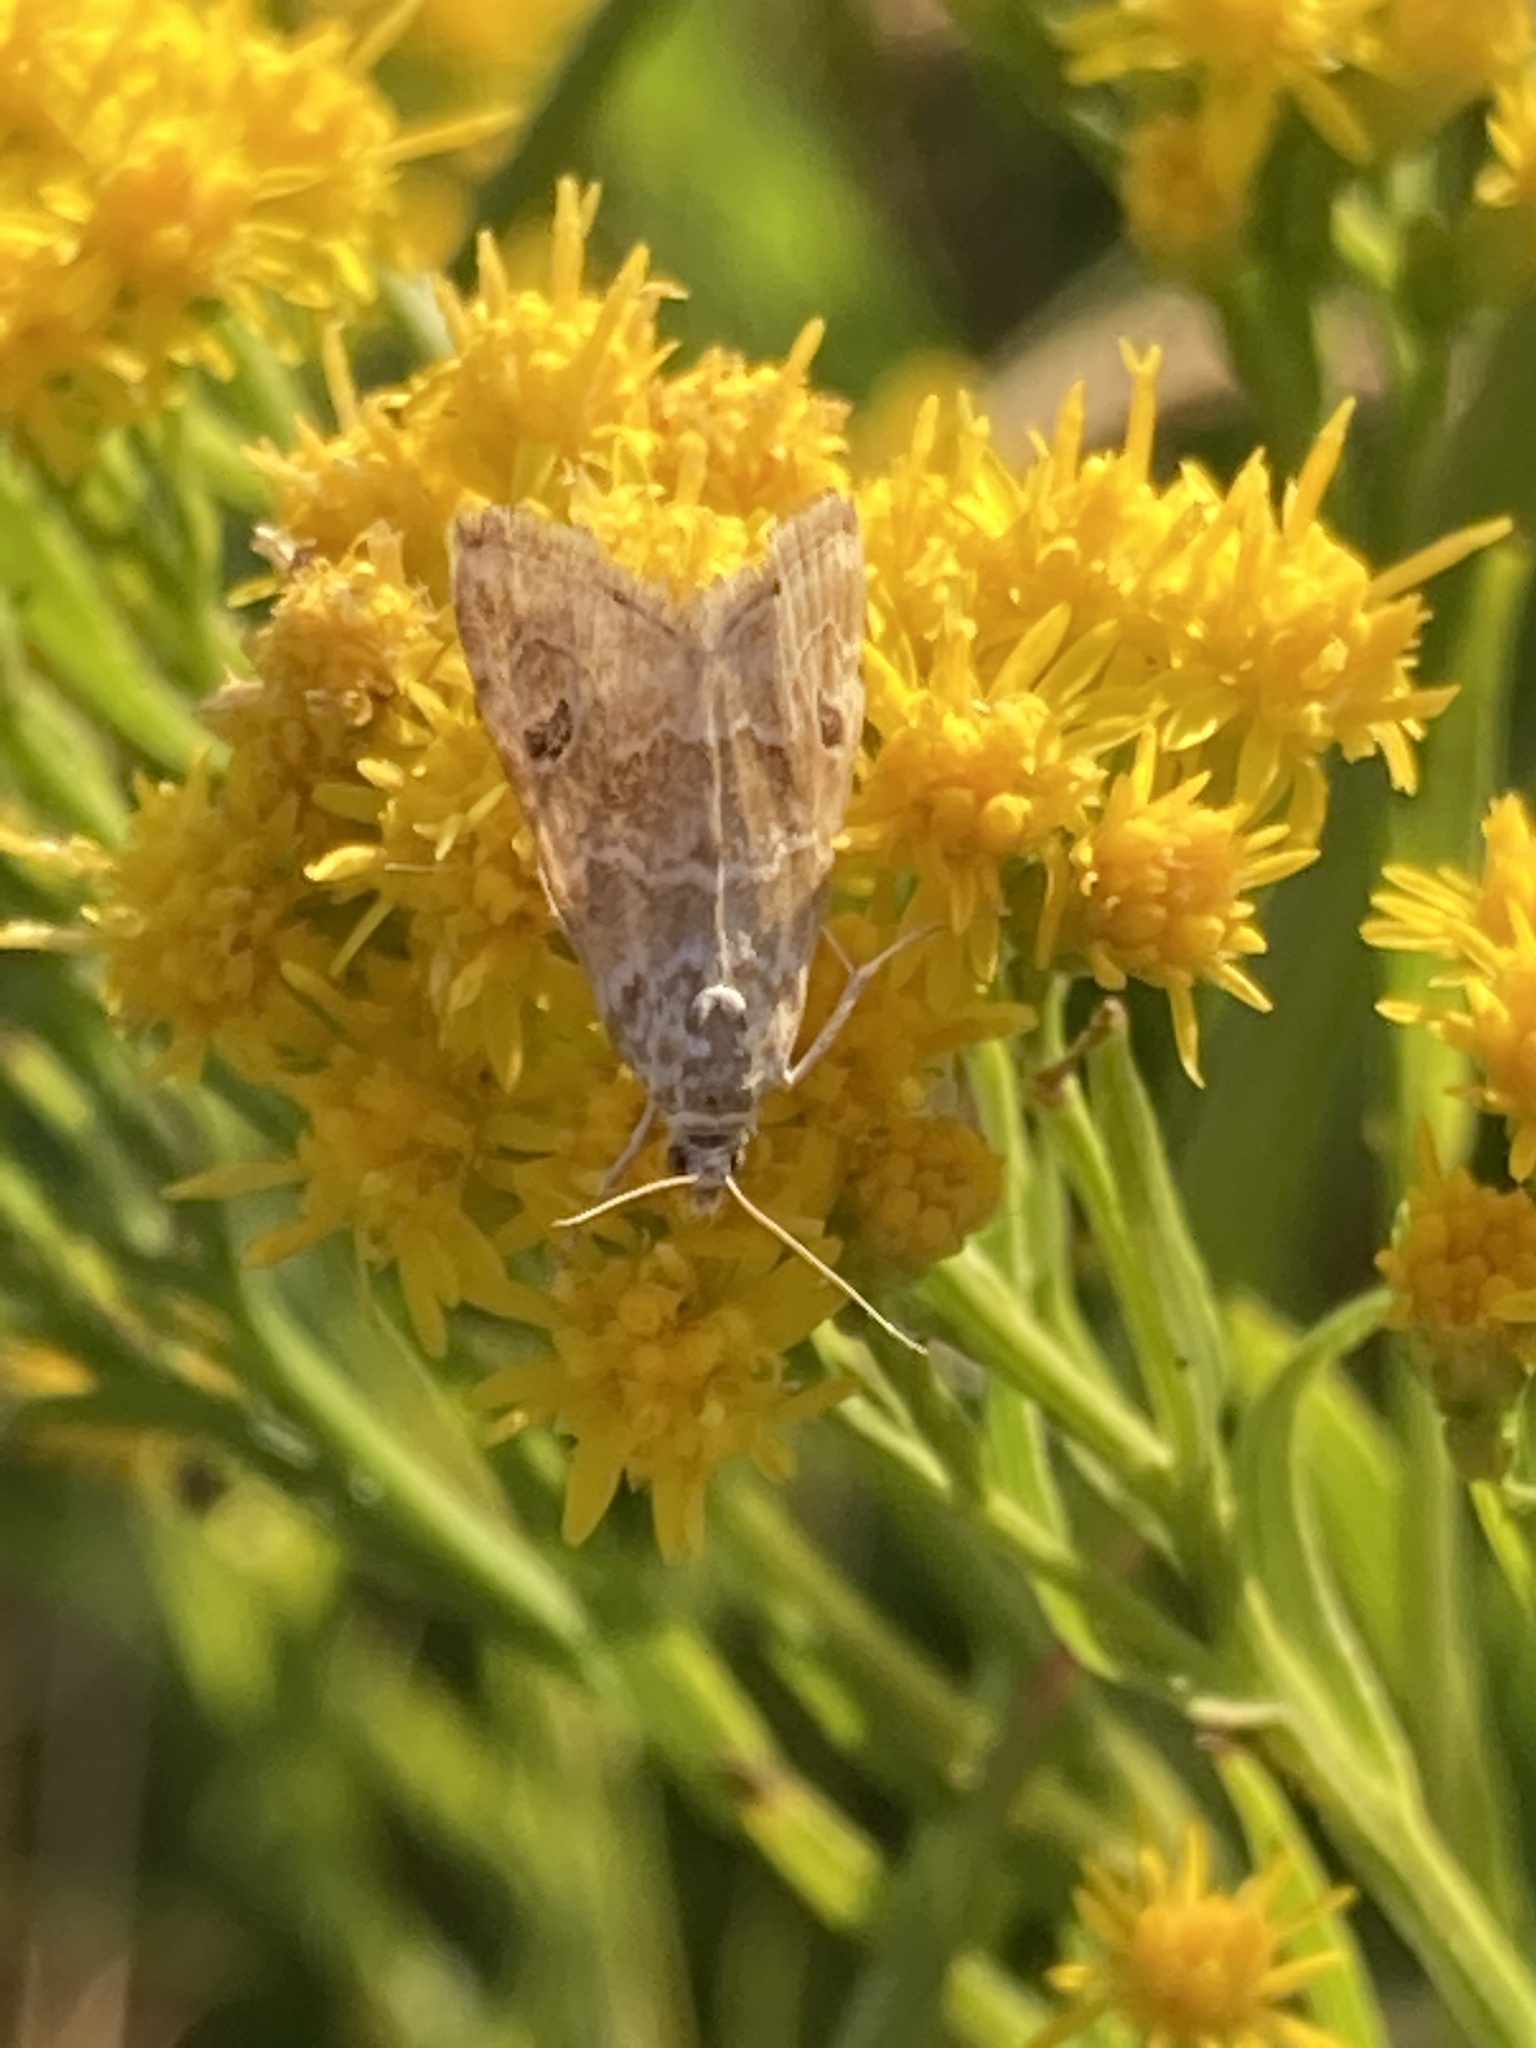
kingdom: Animalia
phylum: Arthropoda
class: Insecta
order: Lepidoptera
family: Crambidae
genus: Hellula
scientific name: Hellula rogatalis
